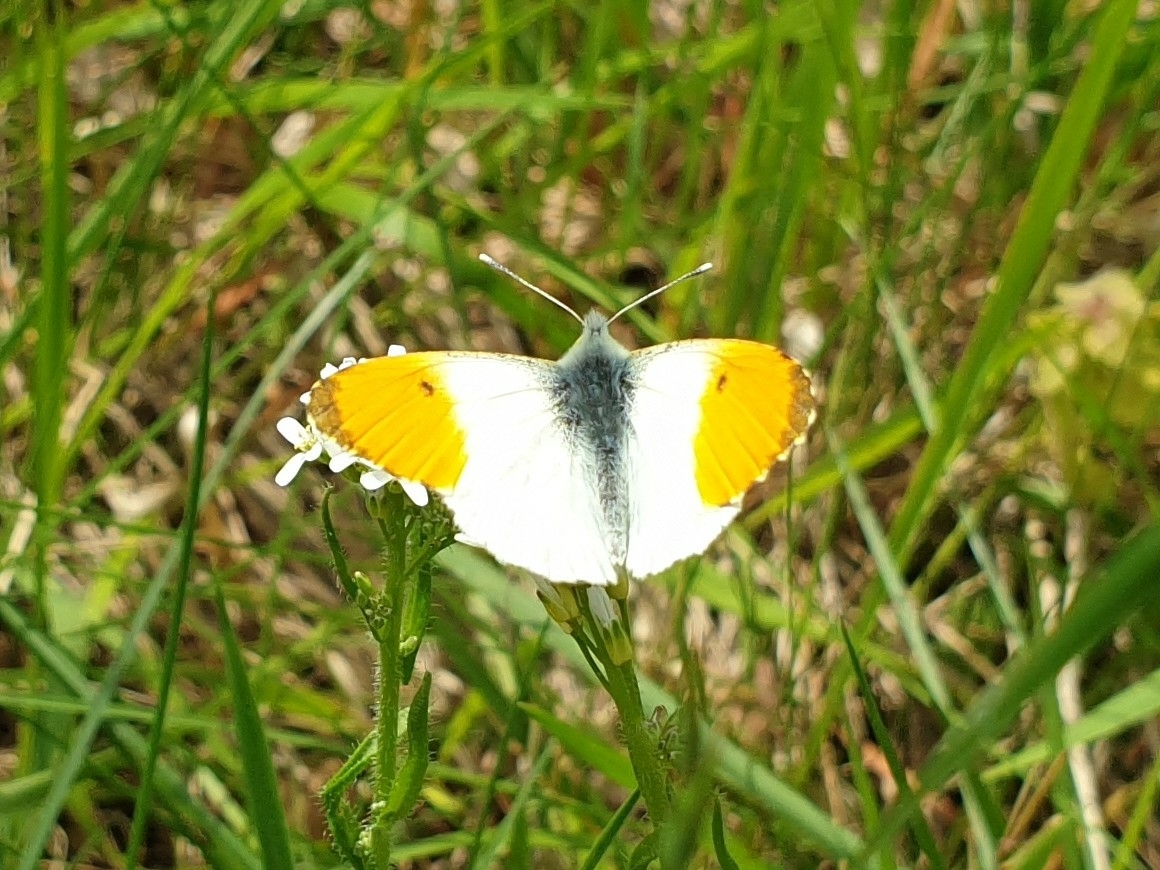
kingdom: Animalia
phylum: Arthropoda
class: Insecta
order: Lepidoptera
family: Pieridae
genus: Anthocharis
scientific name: Anthocharis cardamines
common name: Orange-tip
